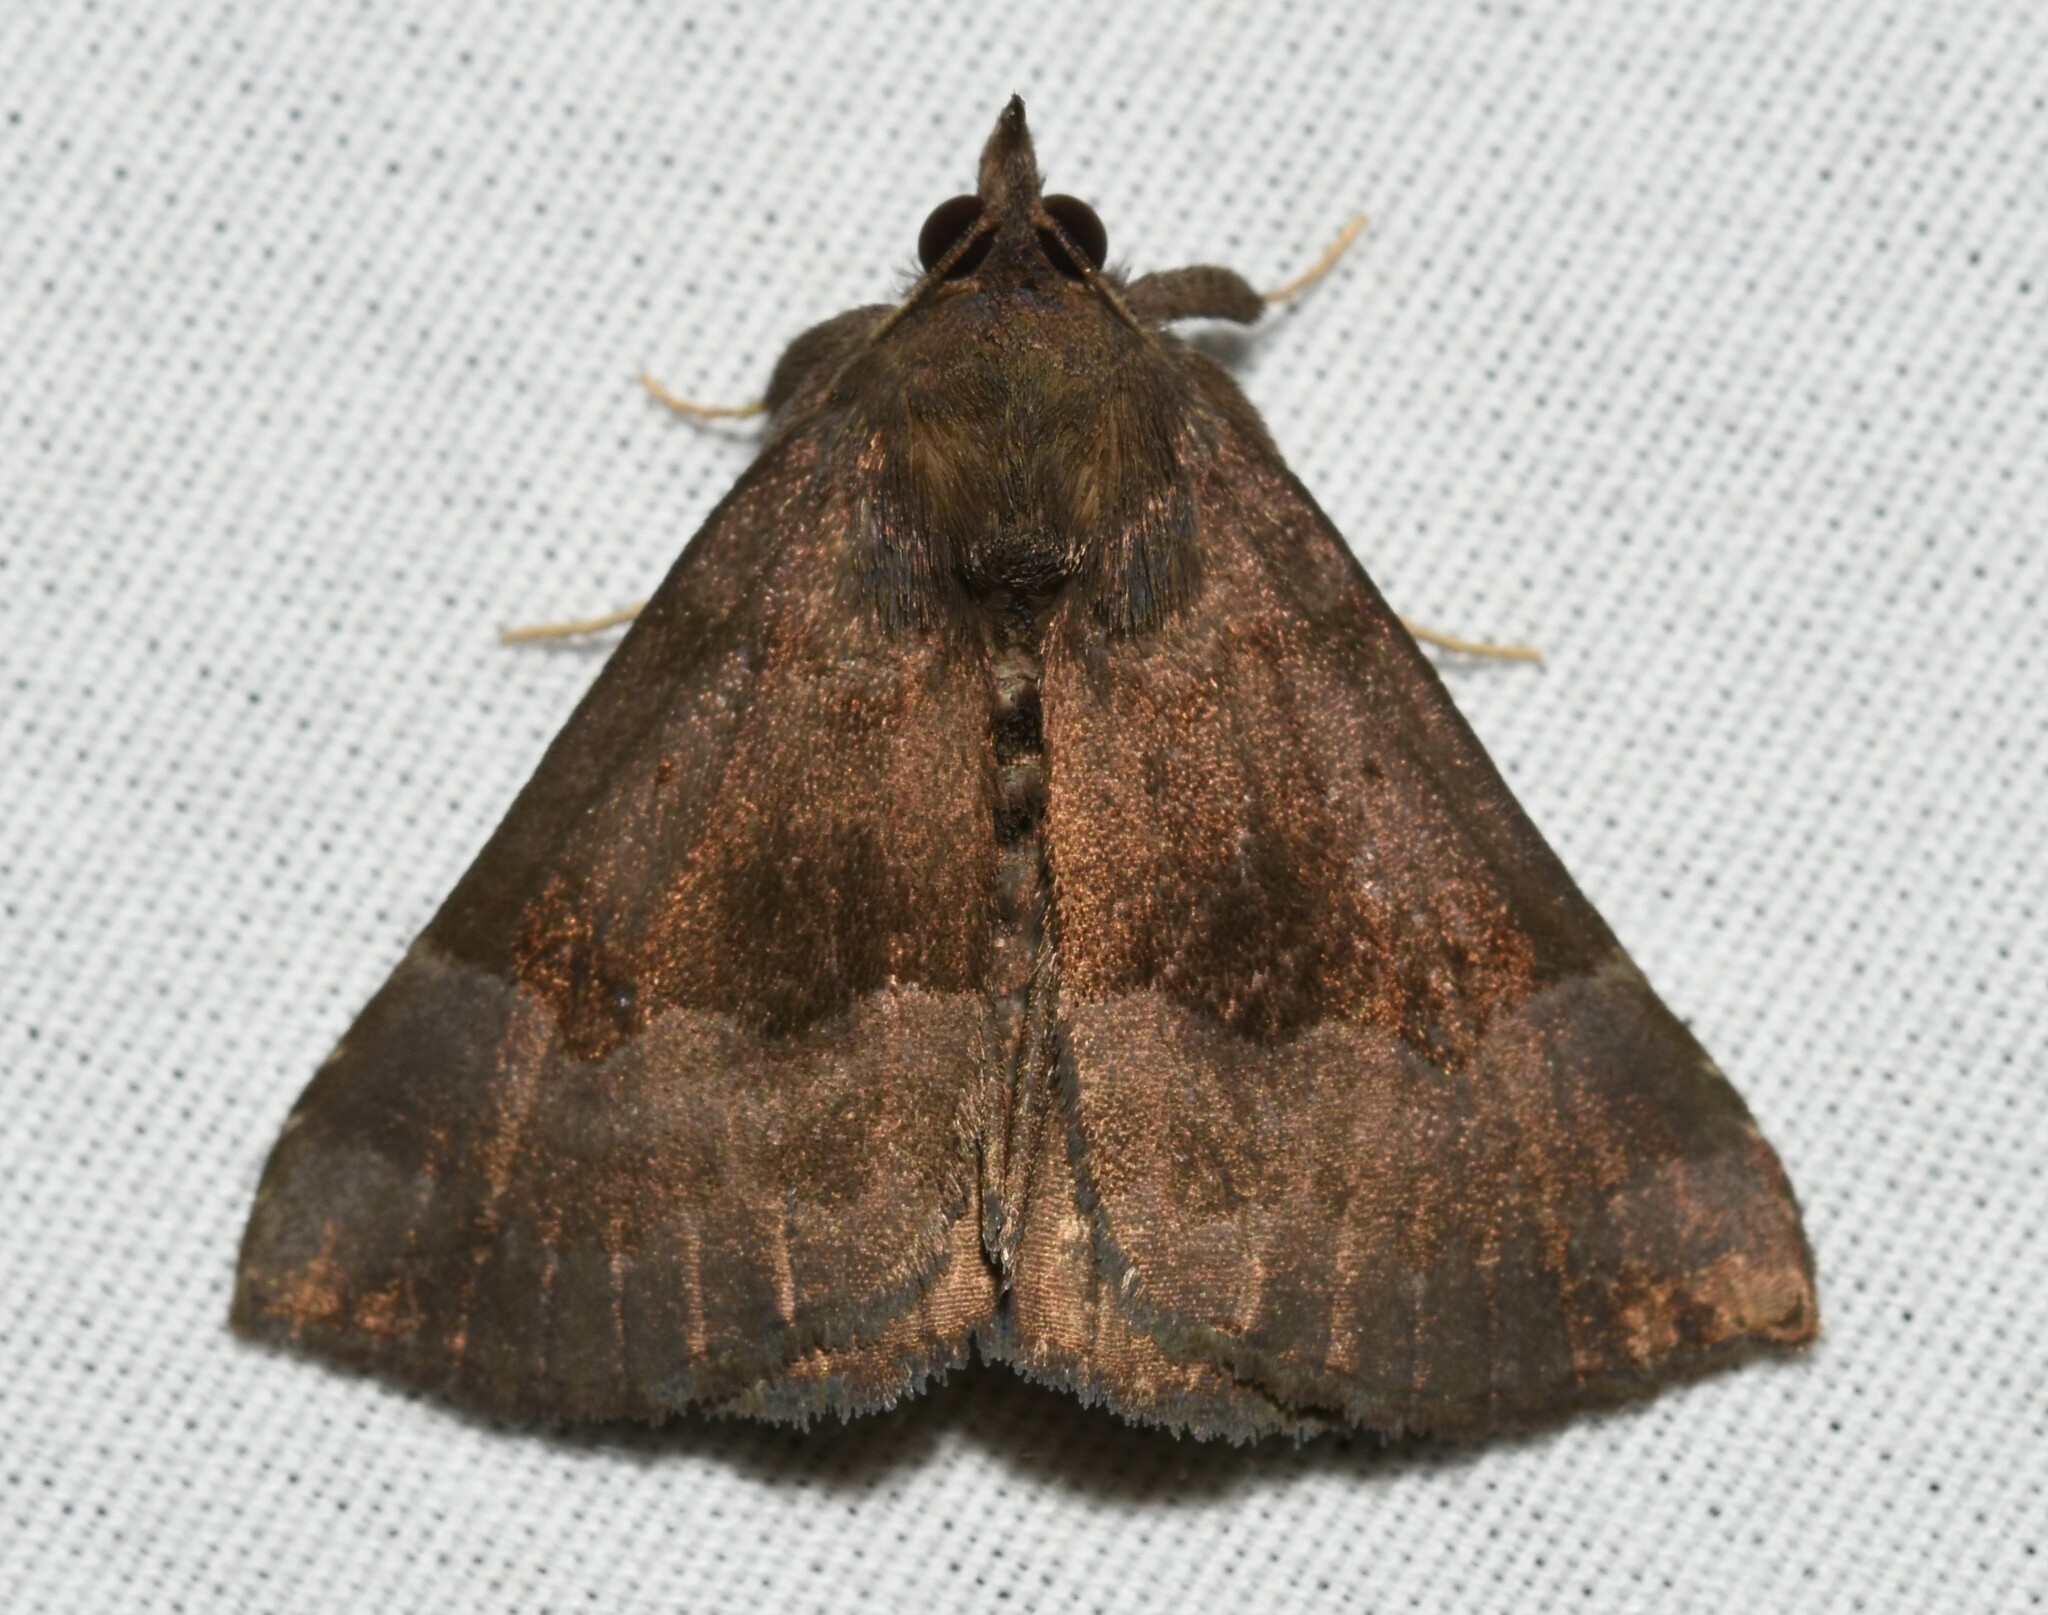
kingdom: Animalia
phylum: Arthropoda
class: Insecta
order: Lepidoptera
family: Erebidae
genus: Hypena
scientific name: Hypena madefactalis
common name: Gray-edged snout
